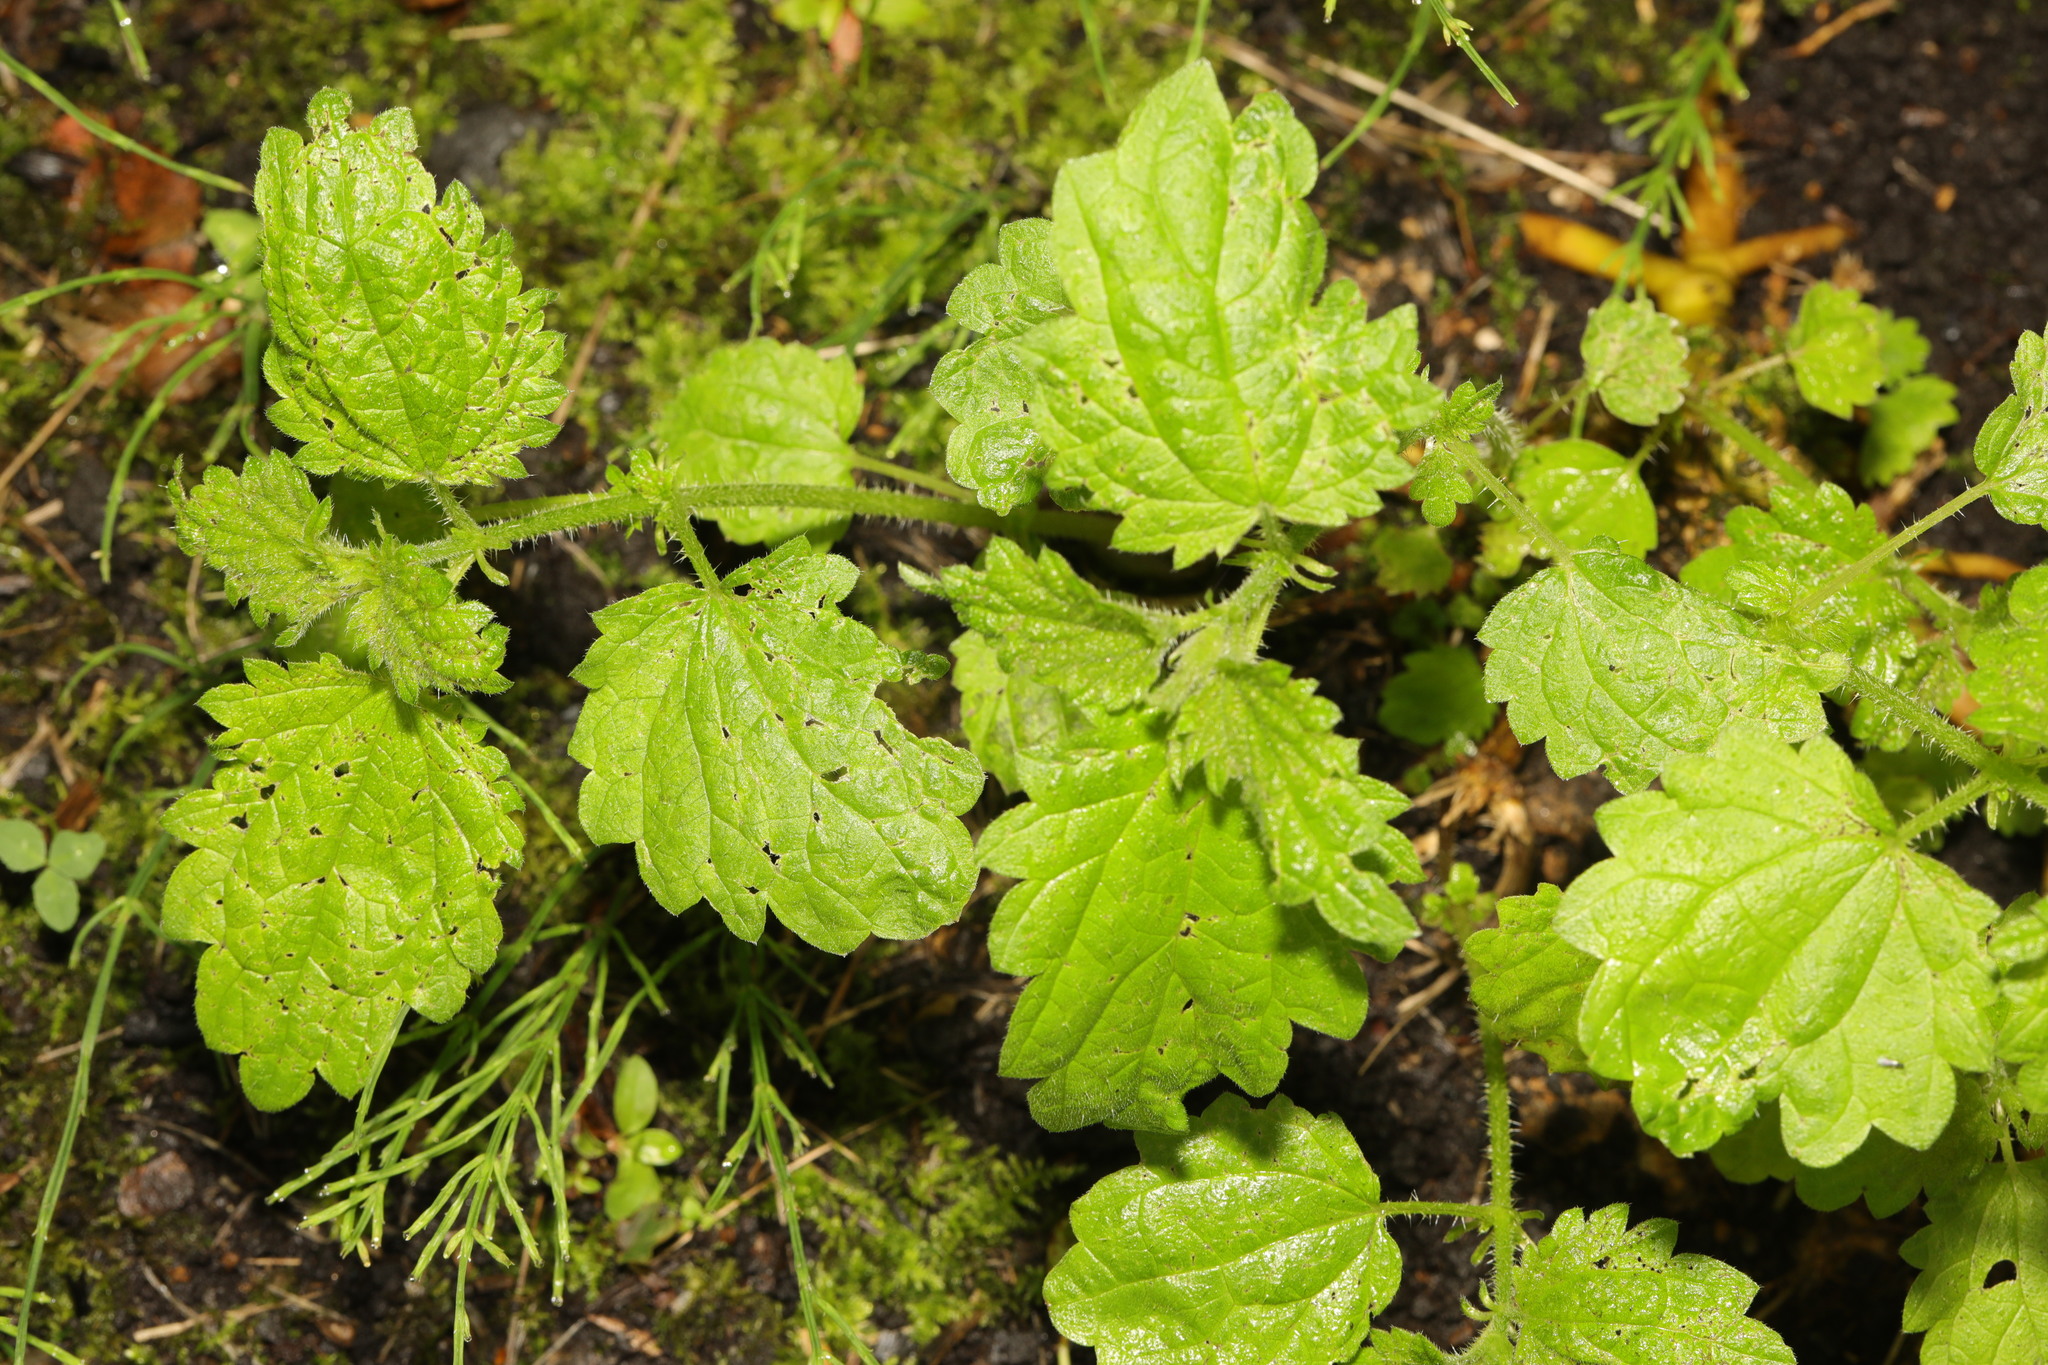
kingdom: Plantae
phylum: Tracheophyta
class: Magnoliopsida
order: Rosales
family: Urticaceae
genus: Urtica
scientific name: Urtica dioica
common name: Common nettle
